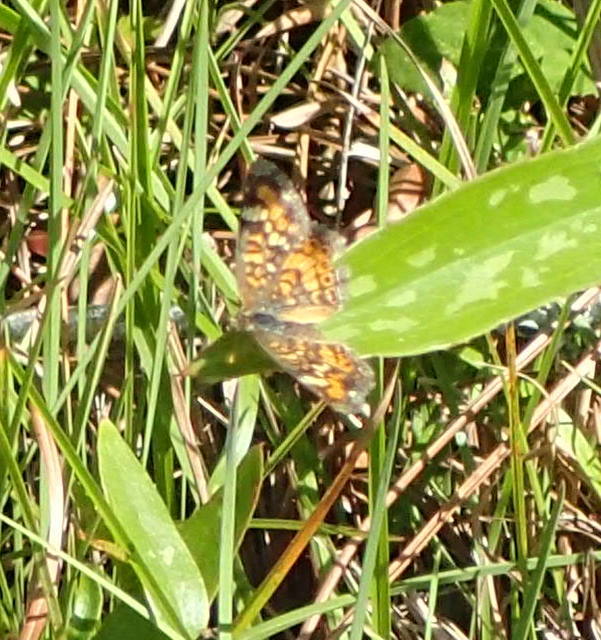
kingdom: Animalia
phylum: Arthropoda
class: Insecta
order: Lepidoptera
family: Nymphalidae
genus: Phyciodes
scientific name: Phyciodes phaon
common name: Phaon crescent
